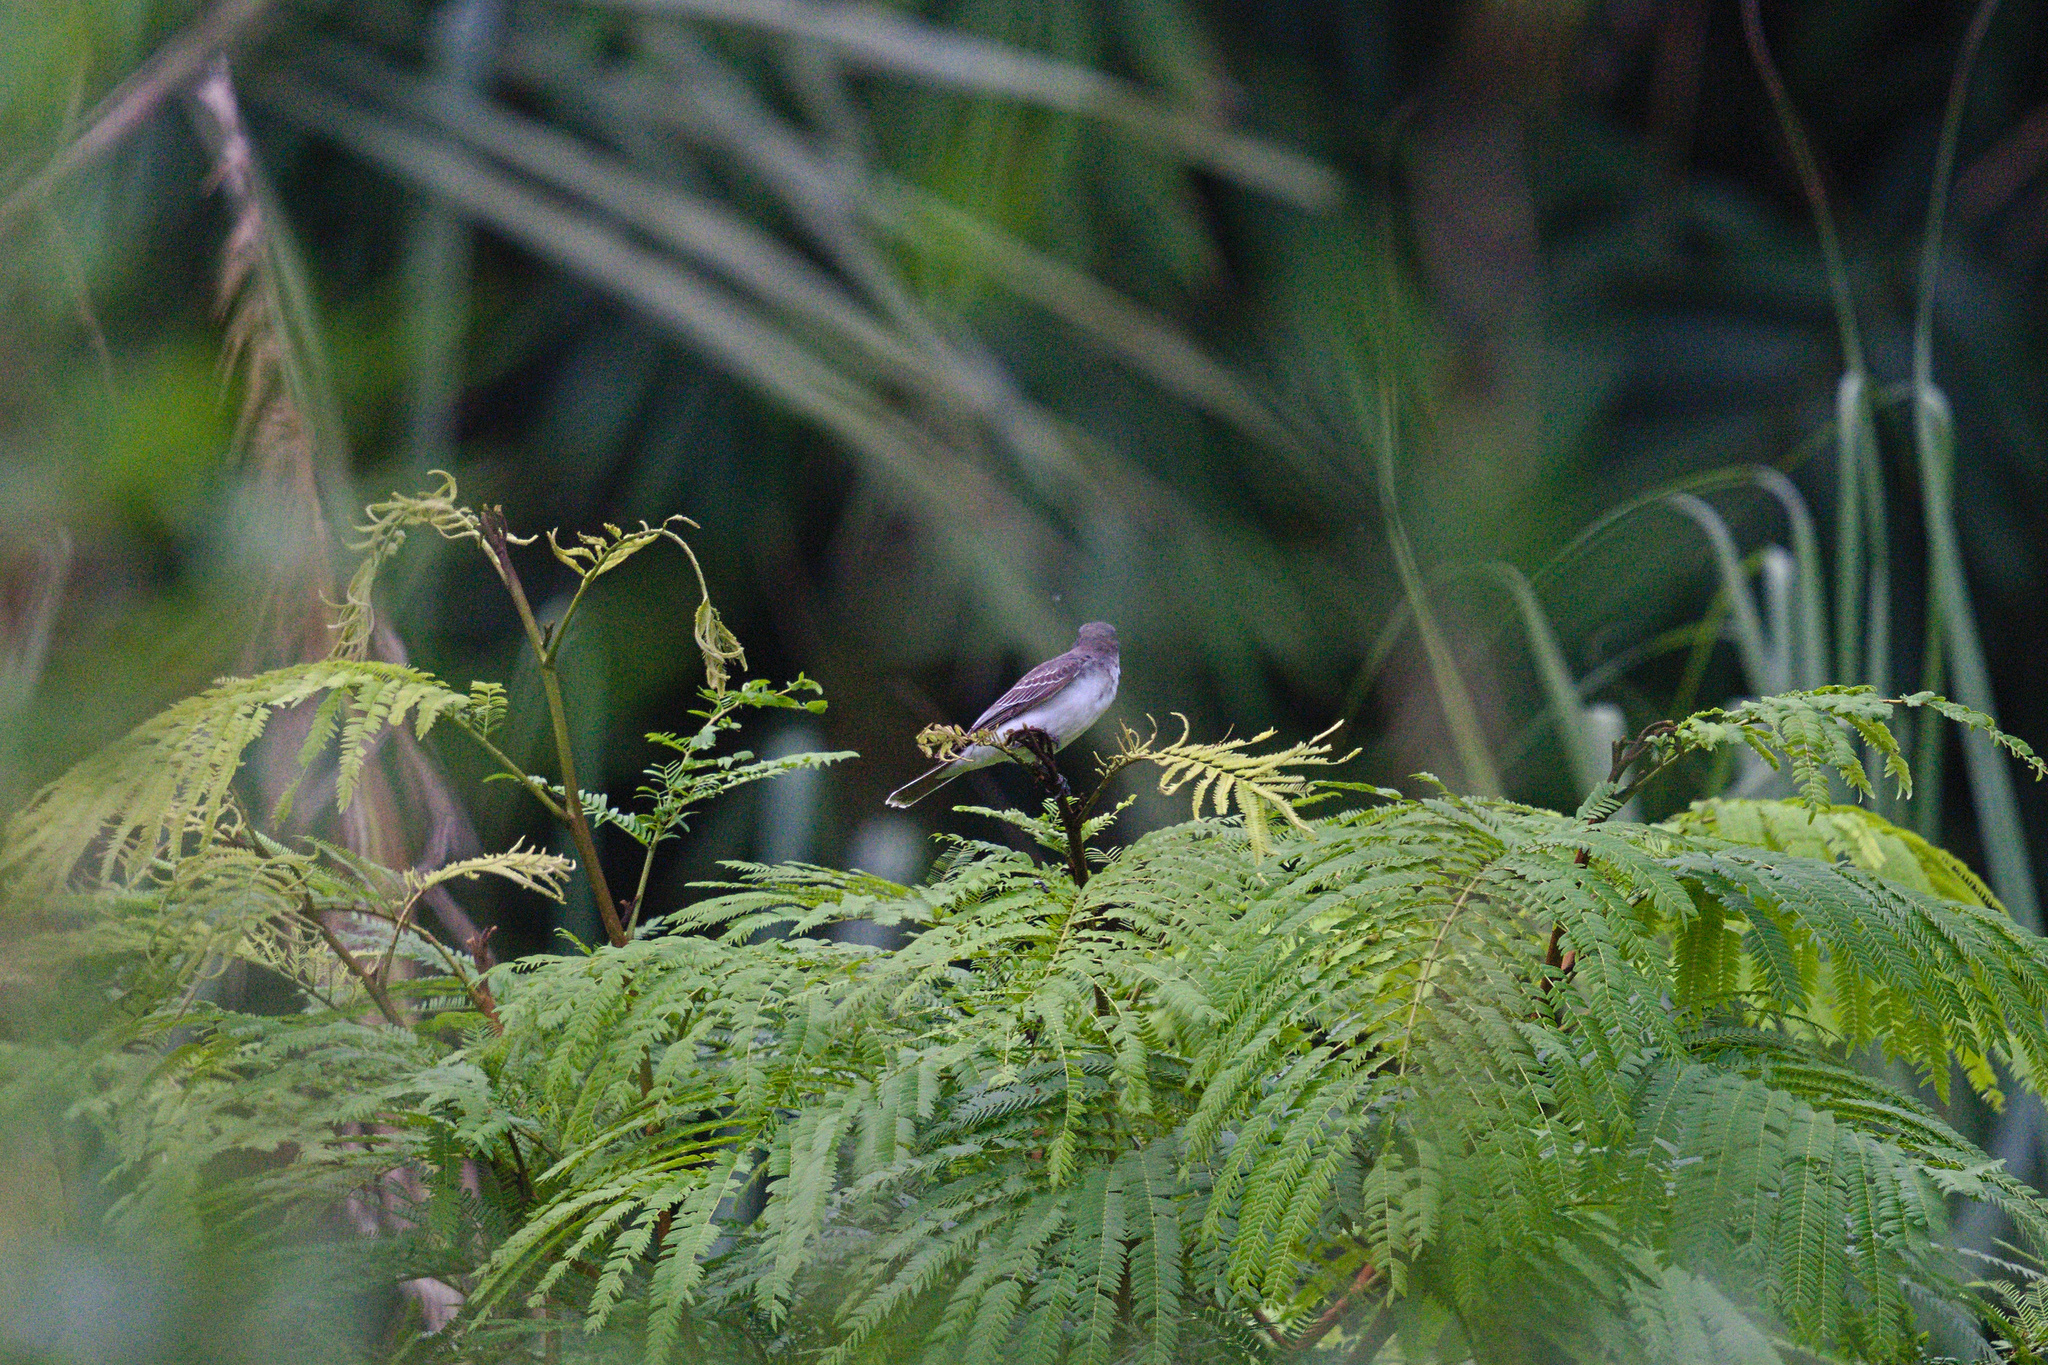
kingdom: Animalia
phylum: Chordata
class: Aves
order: Passeriformes
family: Tyrannidae
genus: Tyrannus
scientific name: Tyrannus tyrannus
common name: Eastern kingbird
